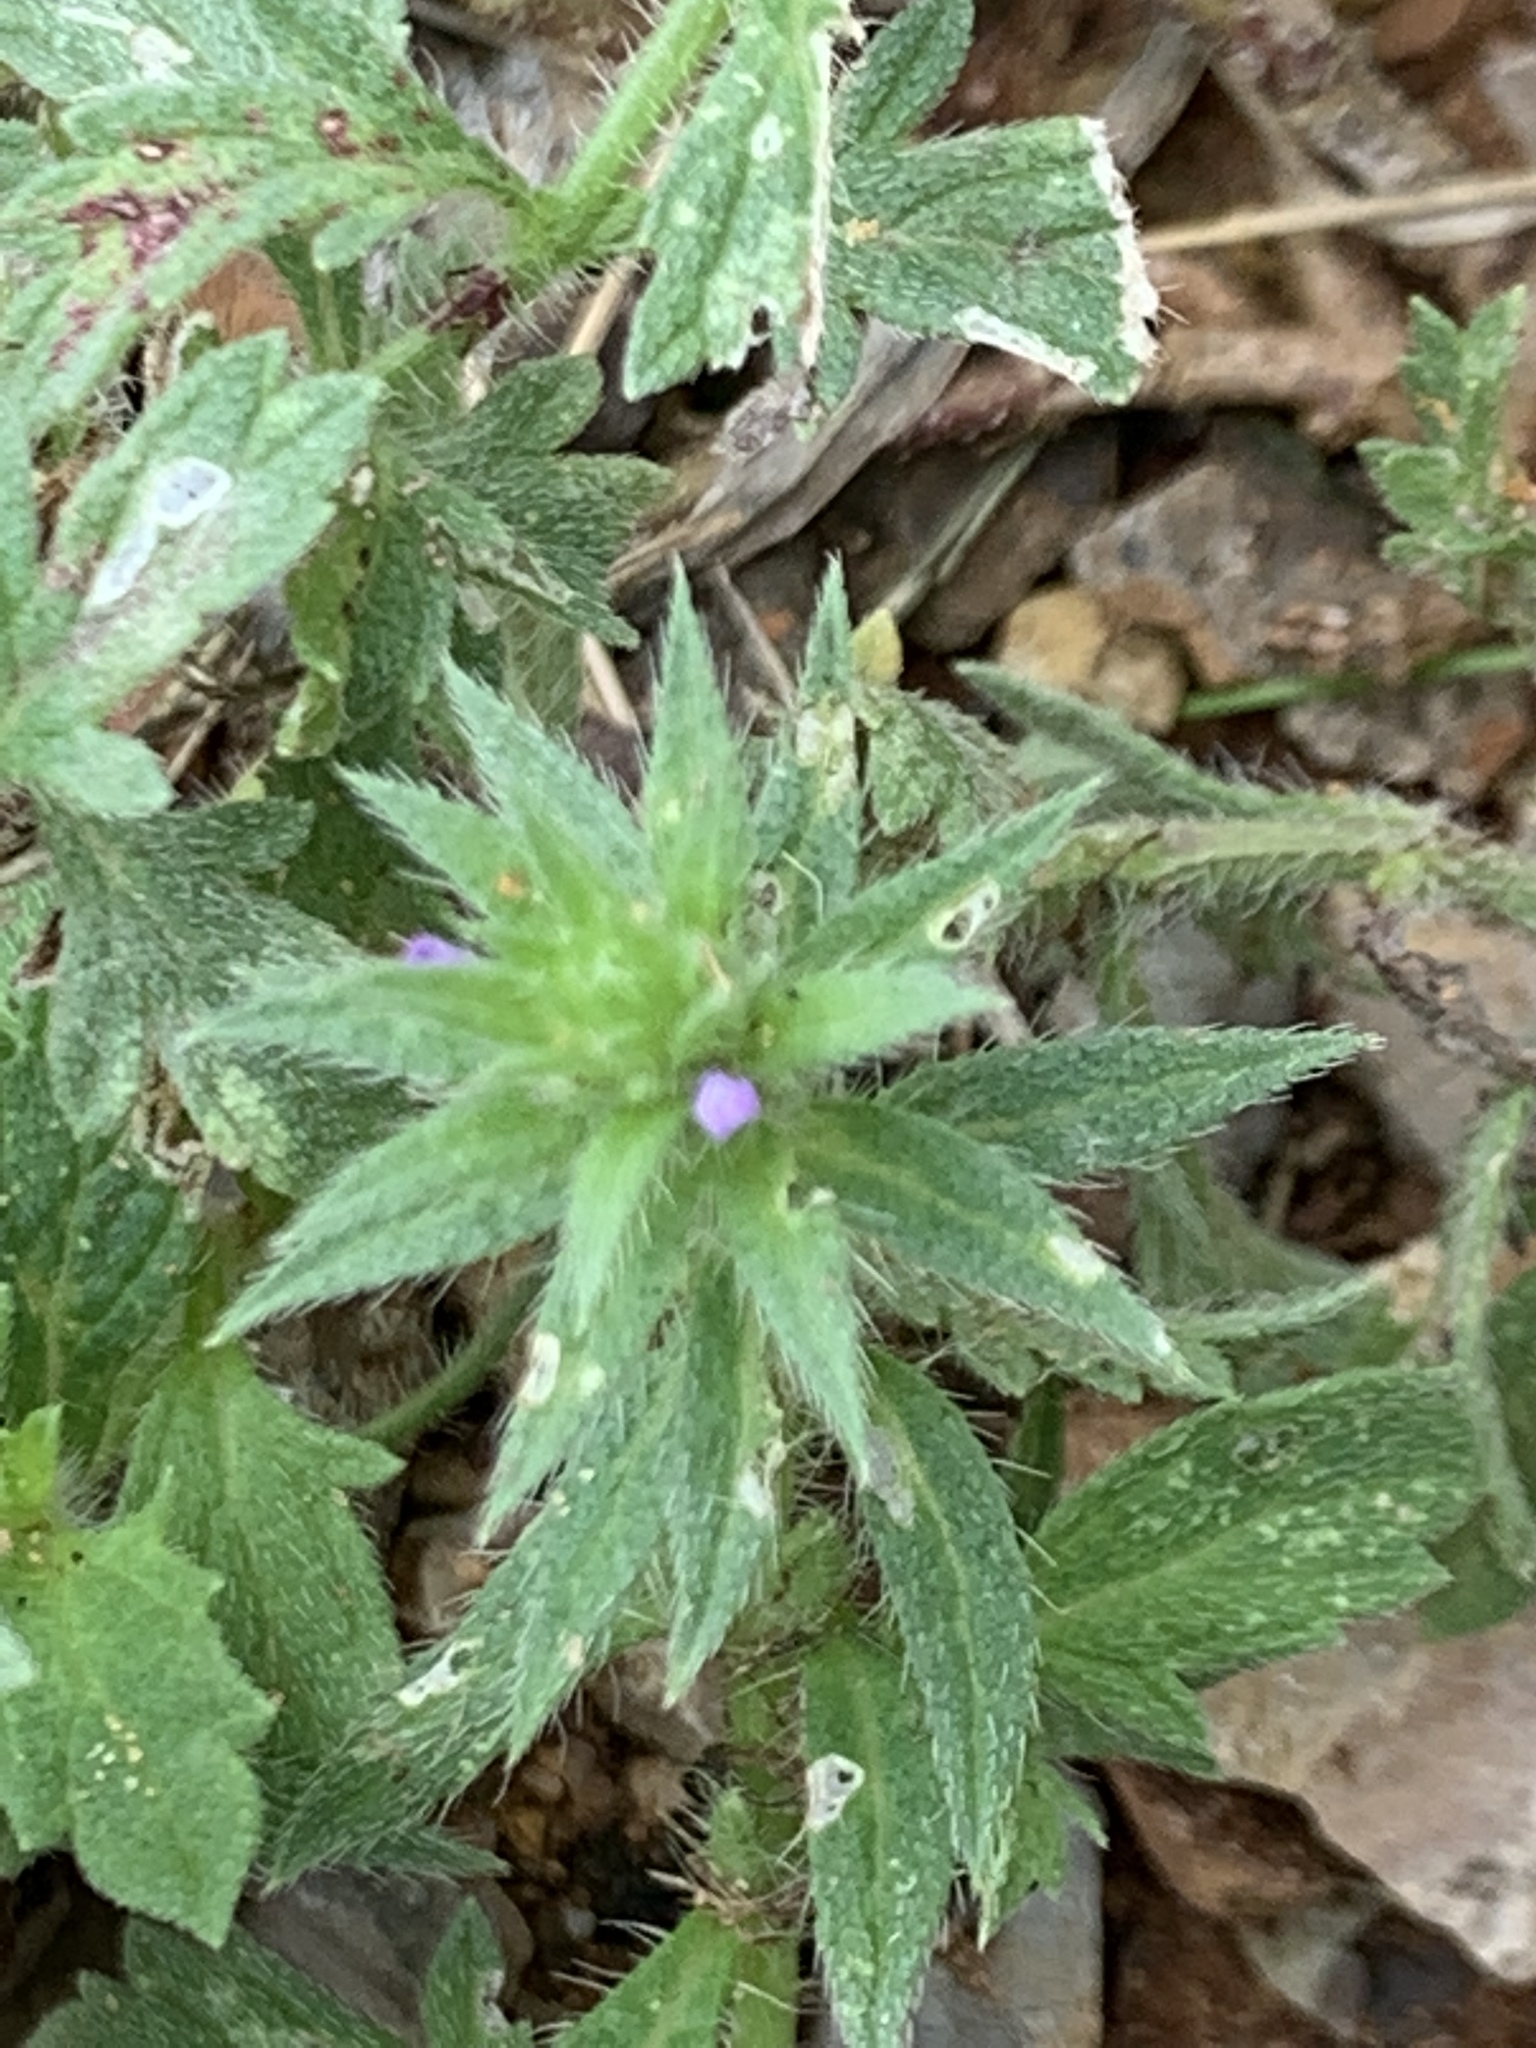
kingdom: Plantae
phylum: Tracheophyta
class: Magnoliopsida
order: Lamiales
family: Verbenaceae
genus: Verbena
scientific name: Verbena bracteata
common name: Bracted vervain
